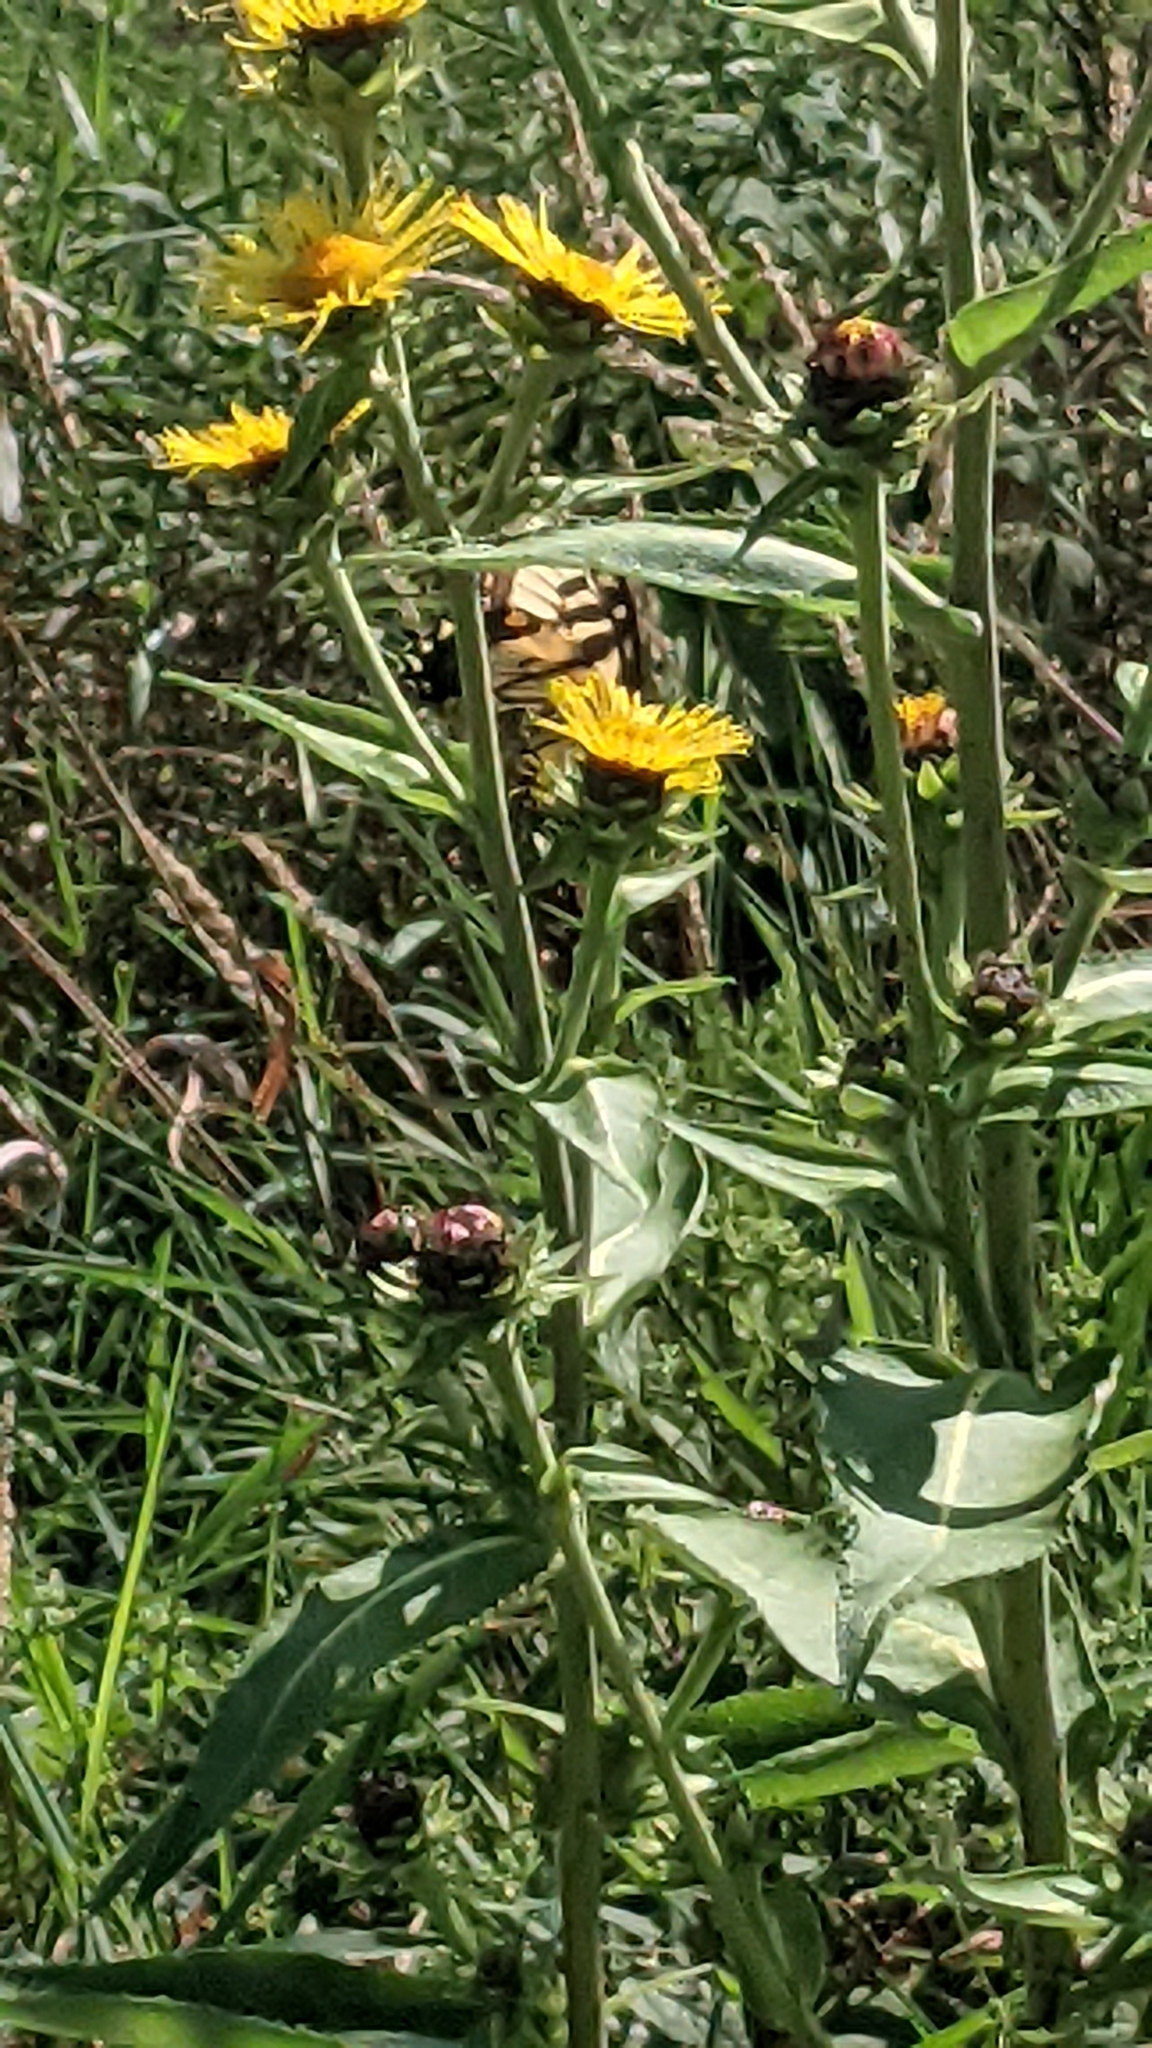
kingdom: Animalia
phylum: Arthropoda
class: Insecta
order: Lepidoptera
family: Papilionidae
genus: Papilio
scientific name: Papilio glaucus
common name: Tiger swallowtail
